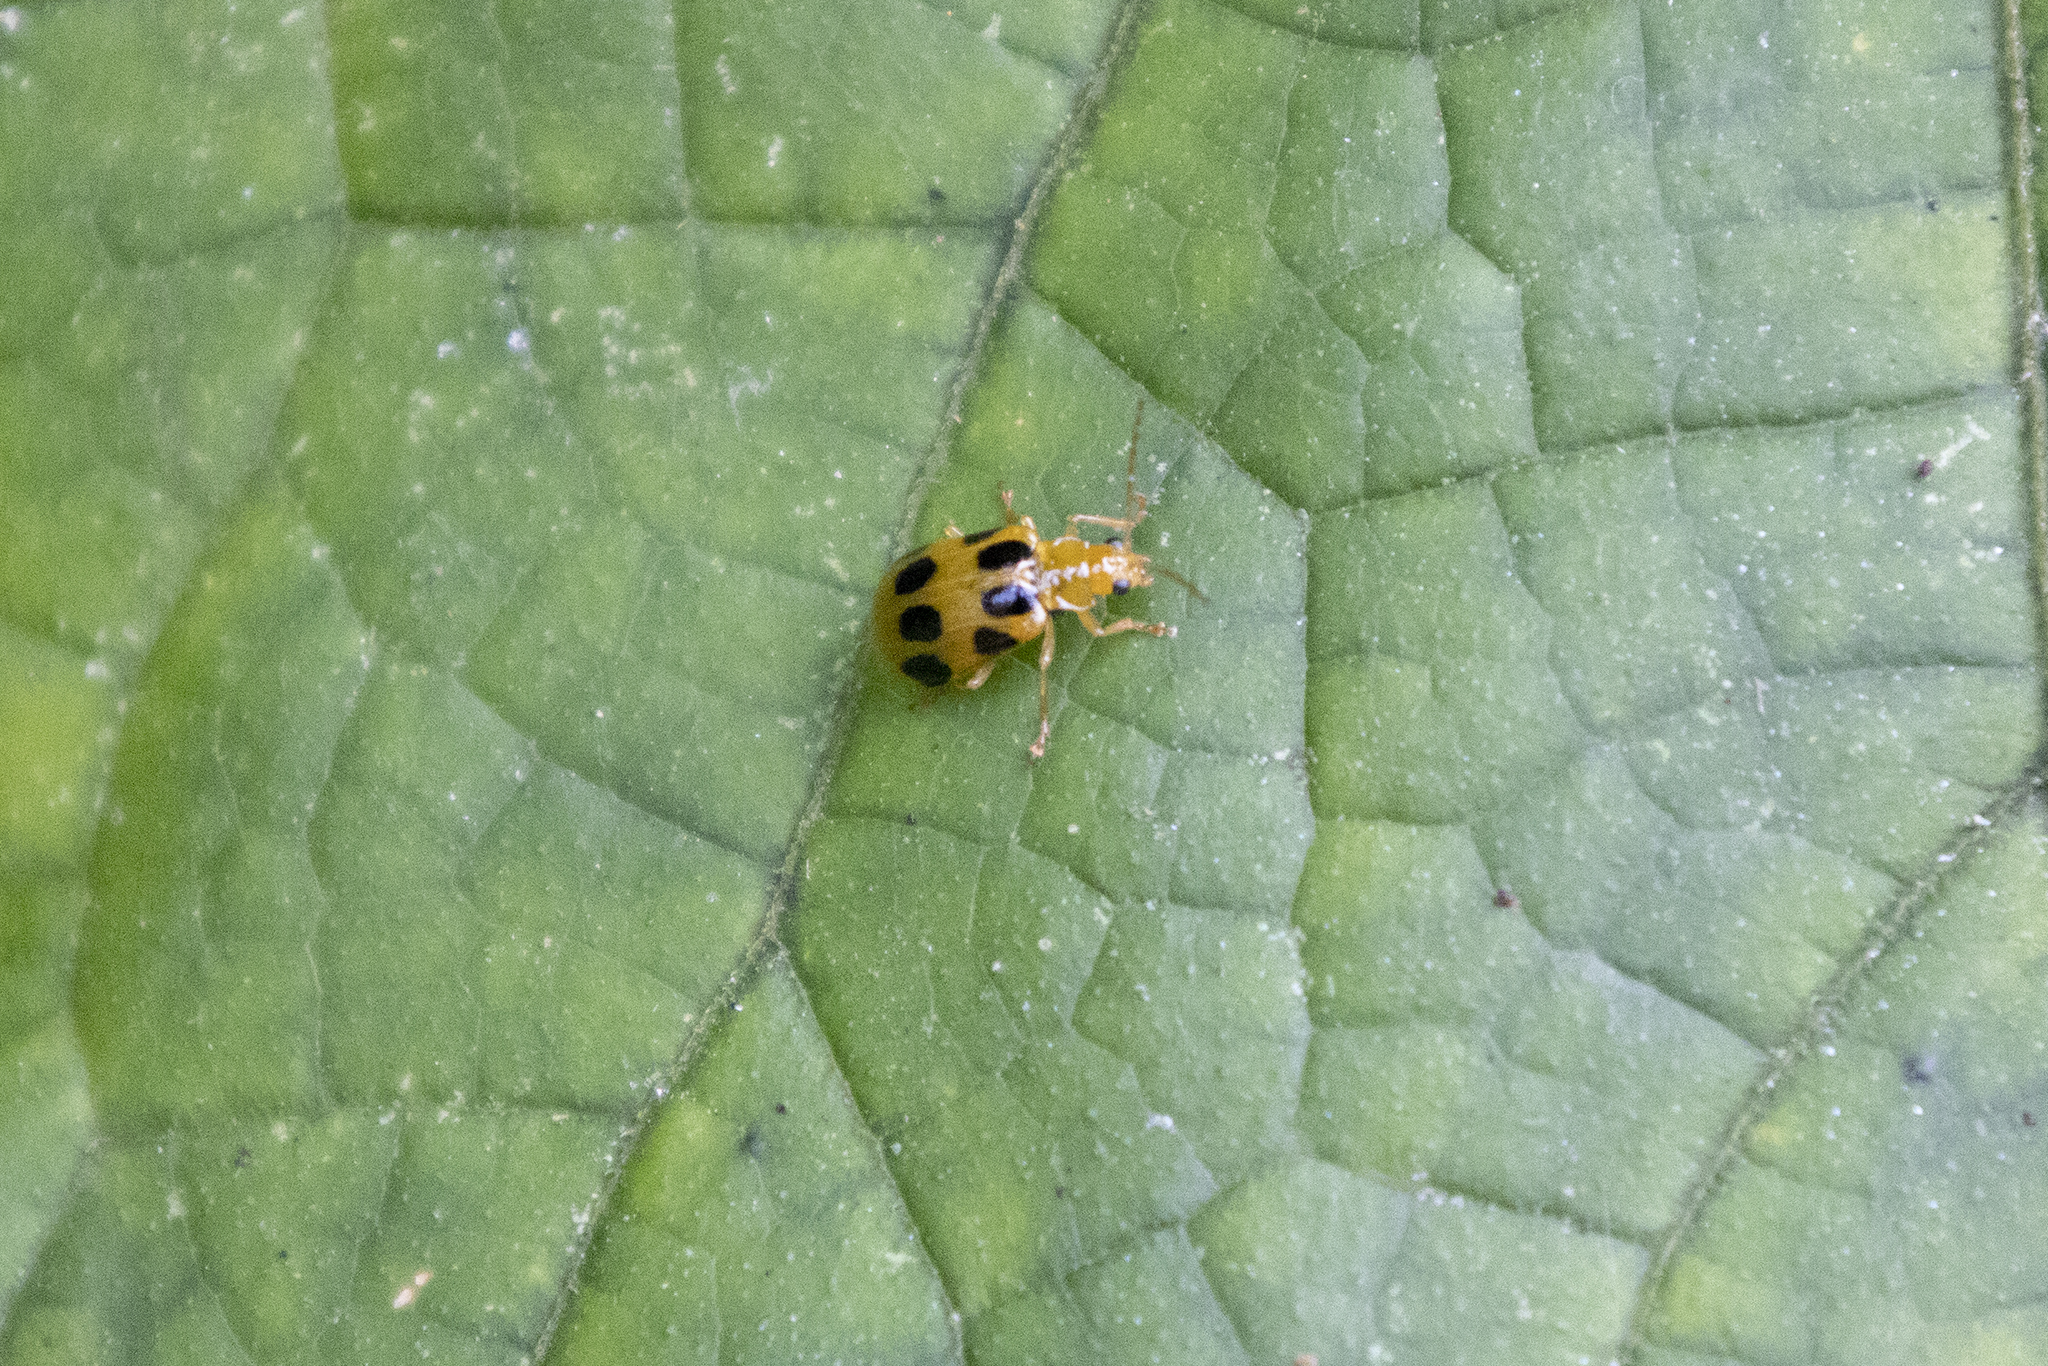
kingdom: Animalia
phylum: Arthropoda
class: Insecta
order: Coleoptera
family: Chrysomelidae
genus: Paridea
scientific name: Paridea
